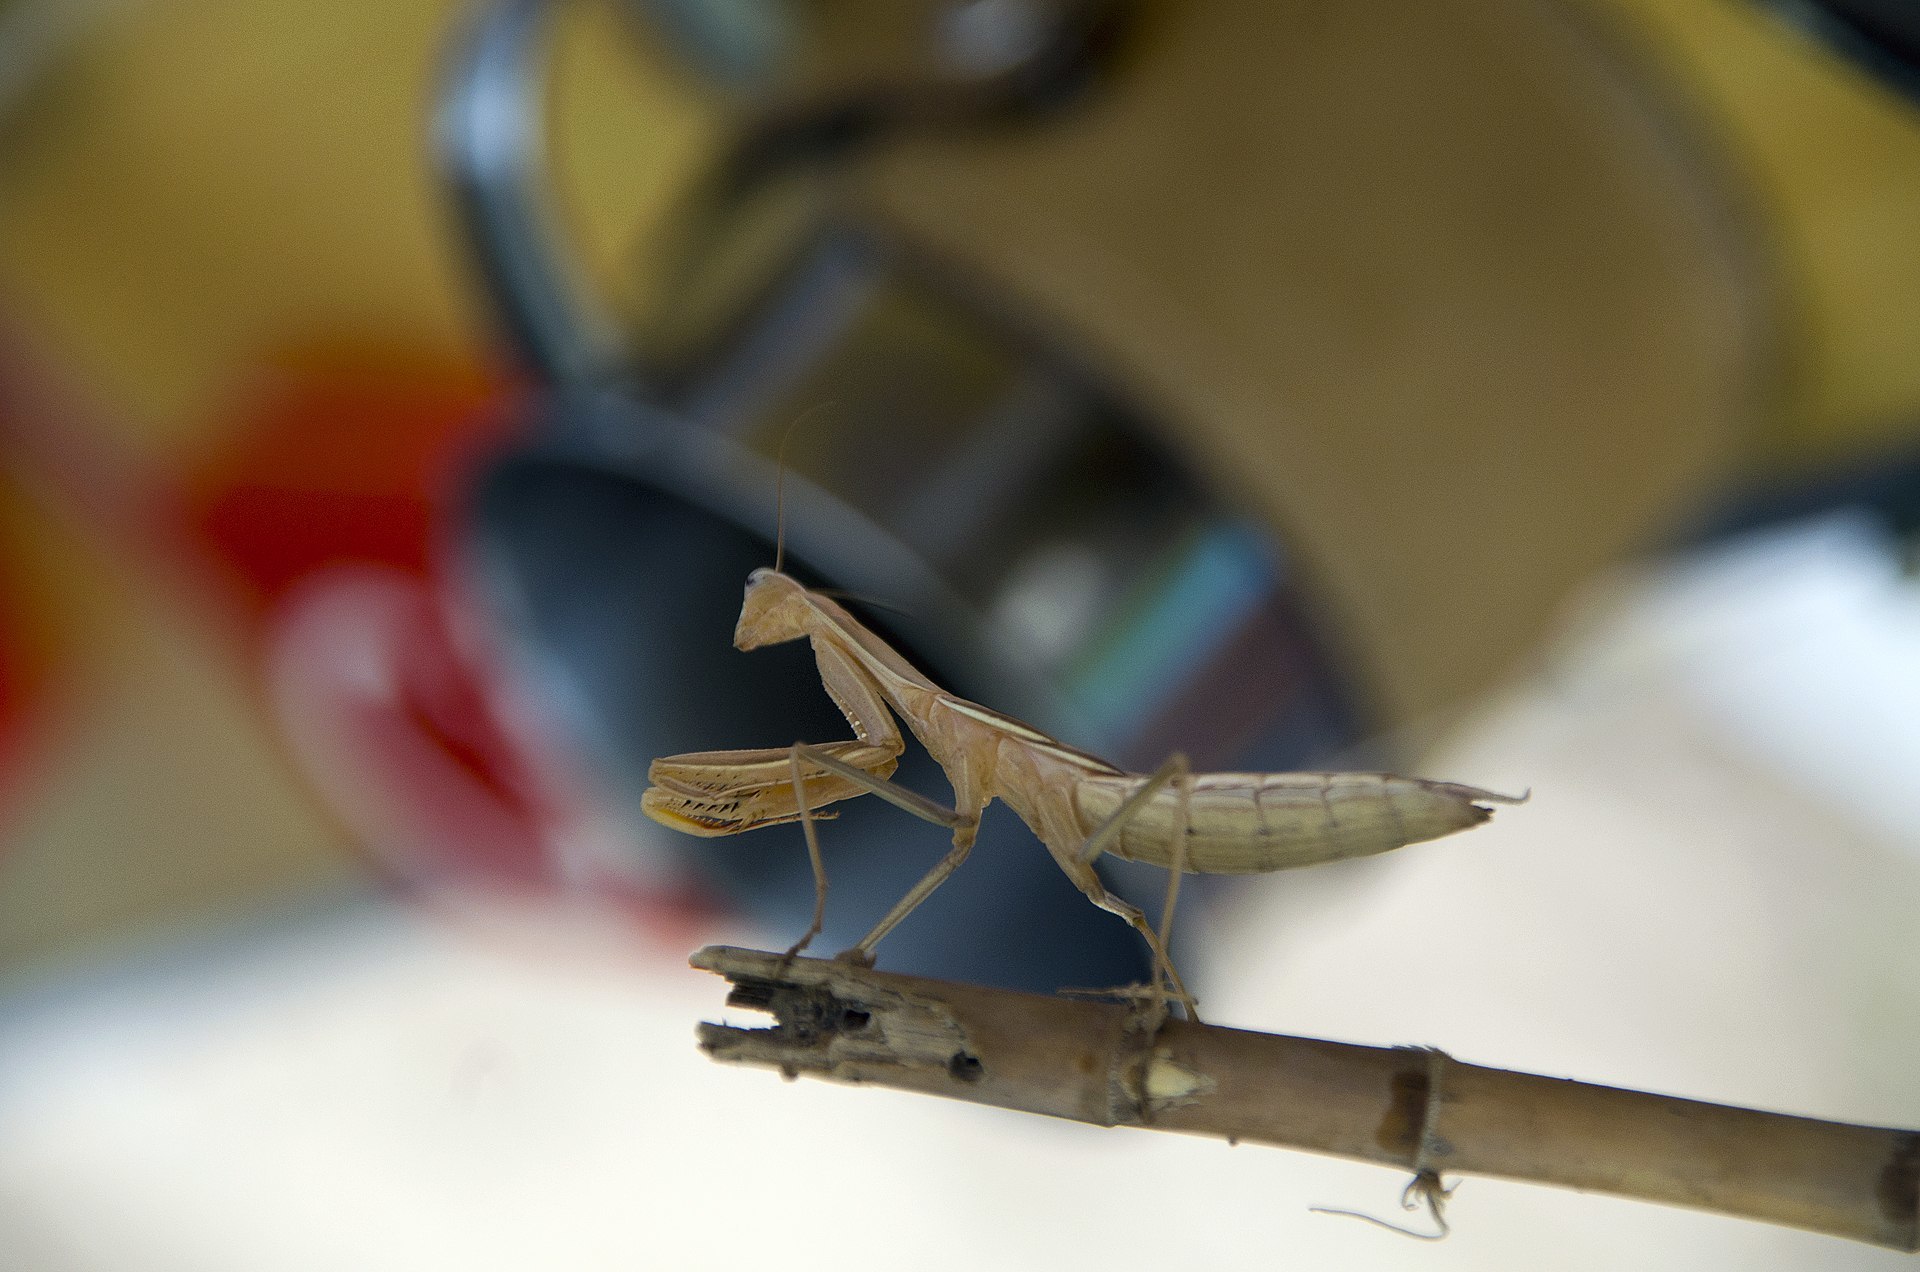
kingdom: Animalia
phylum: Arthropoda
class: Insecta
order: Mantodea
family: Mantidae
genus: Mantis
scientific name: Mantis religiosa
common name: Praying mantis
